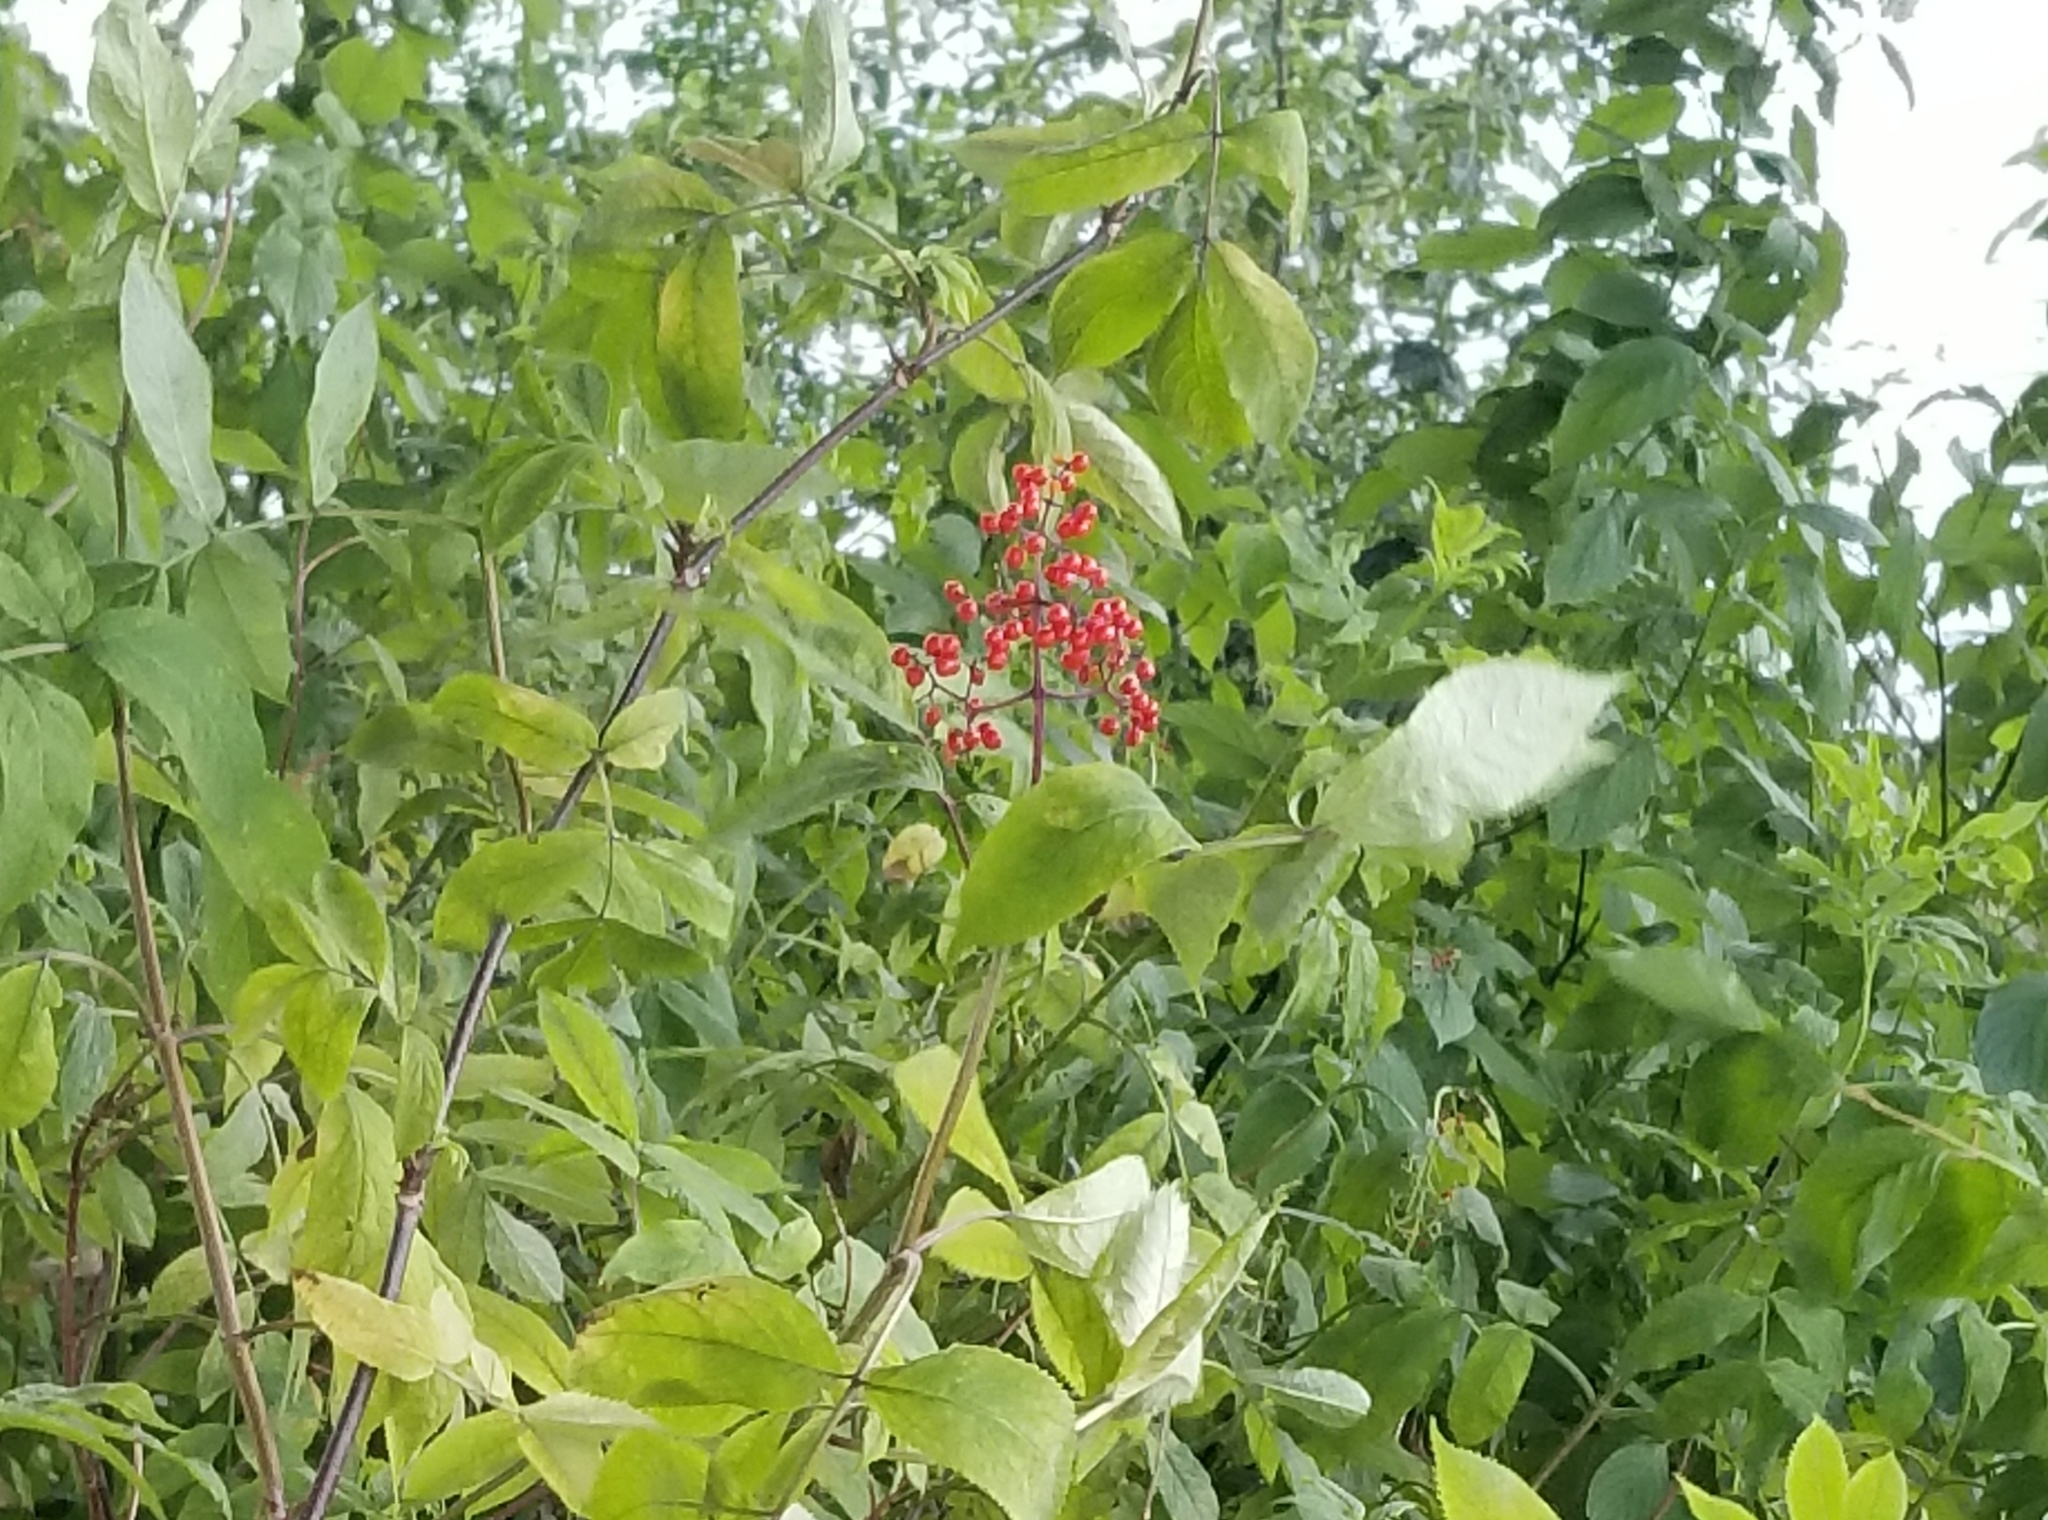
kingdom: Plantae
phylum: Tracheophyta
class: Magnoliopsida
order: Dipsacales
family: Viburnaceae
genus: Sambucus
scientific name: Sambucus racemosa
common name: Red-berried elder
